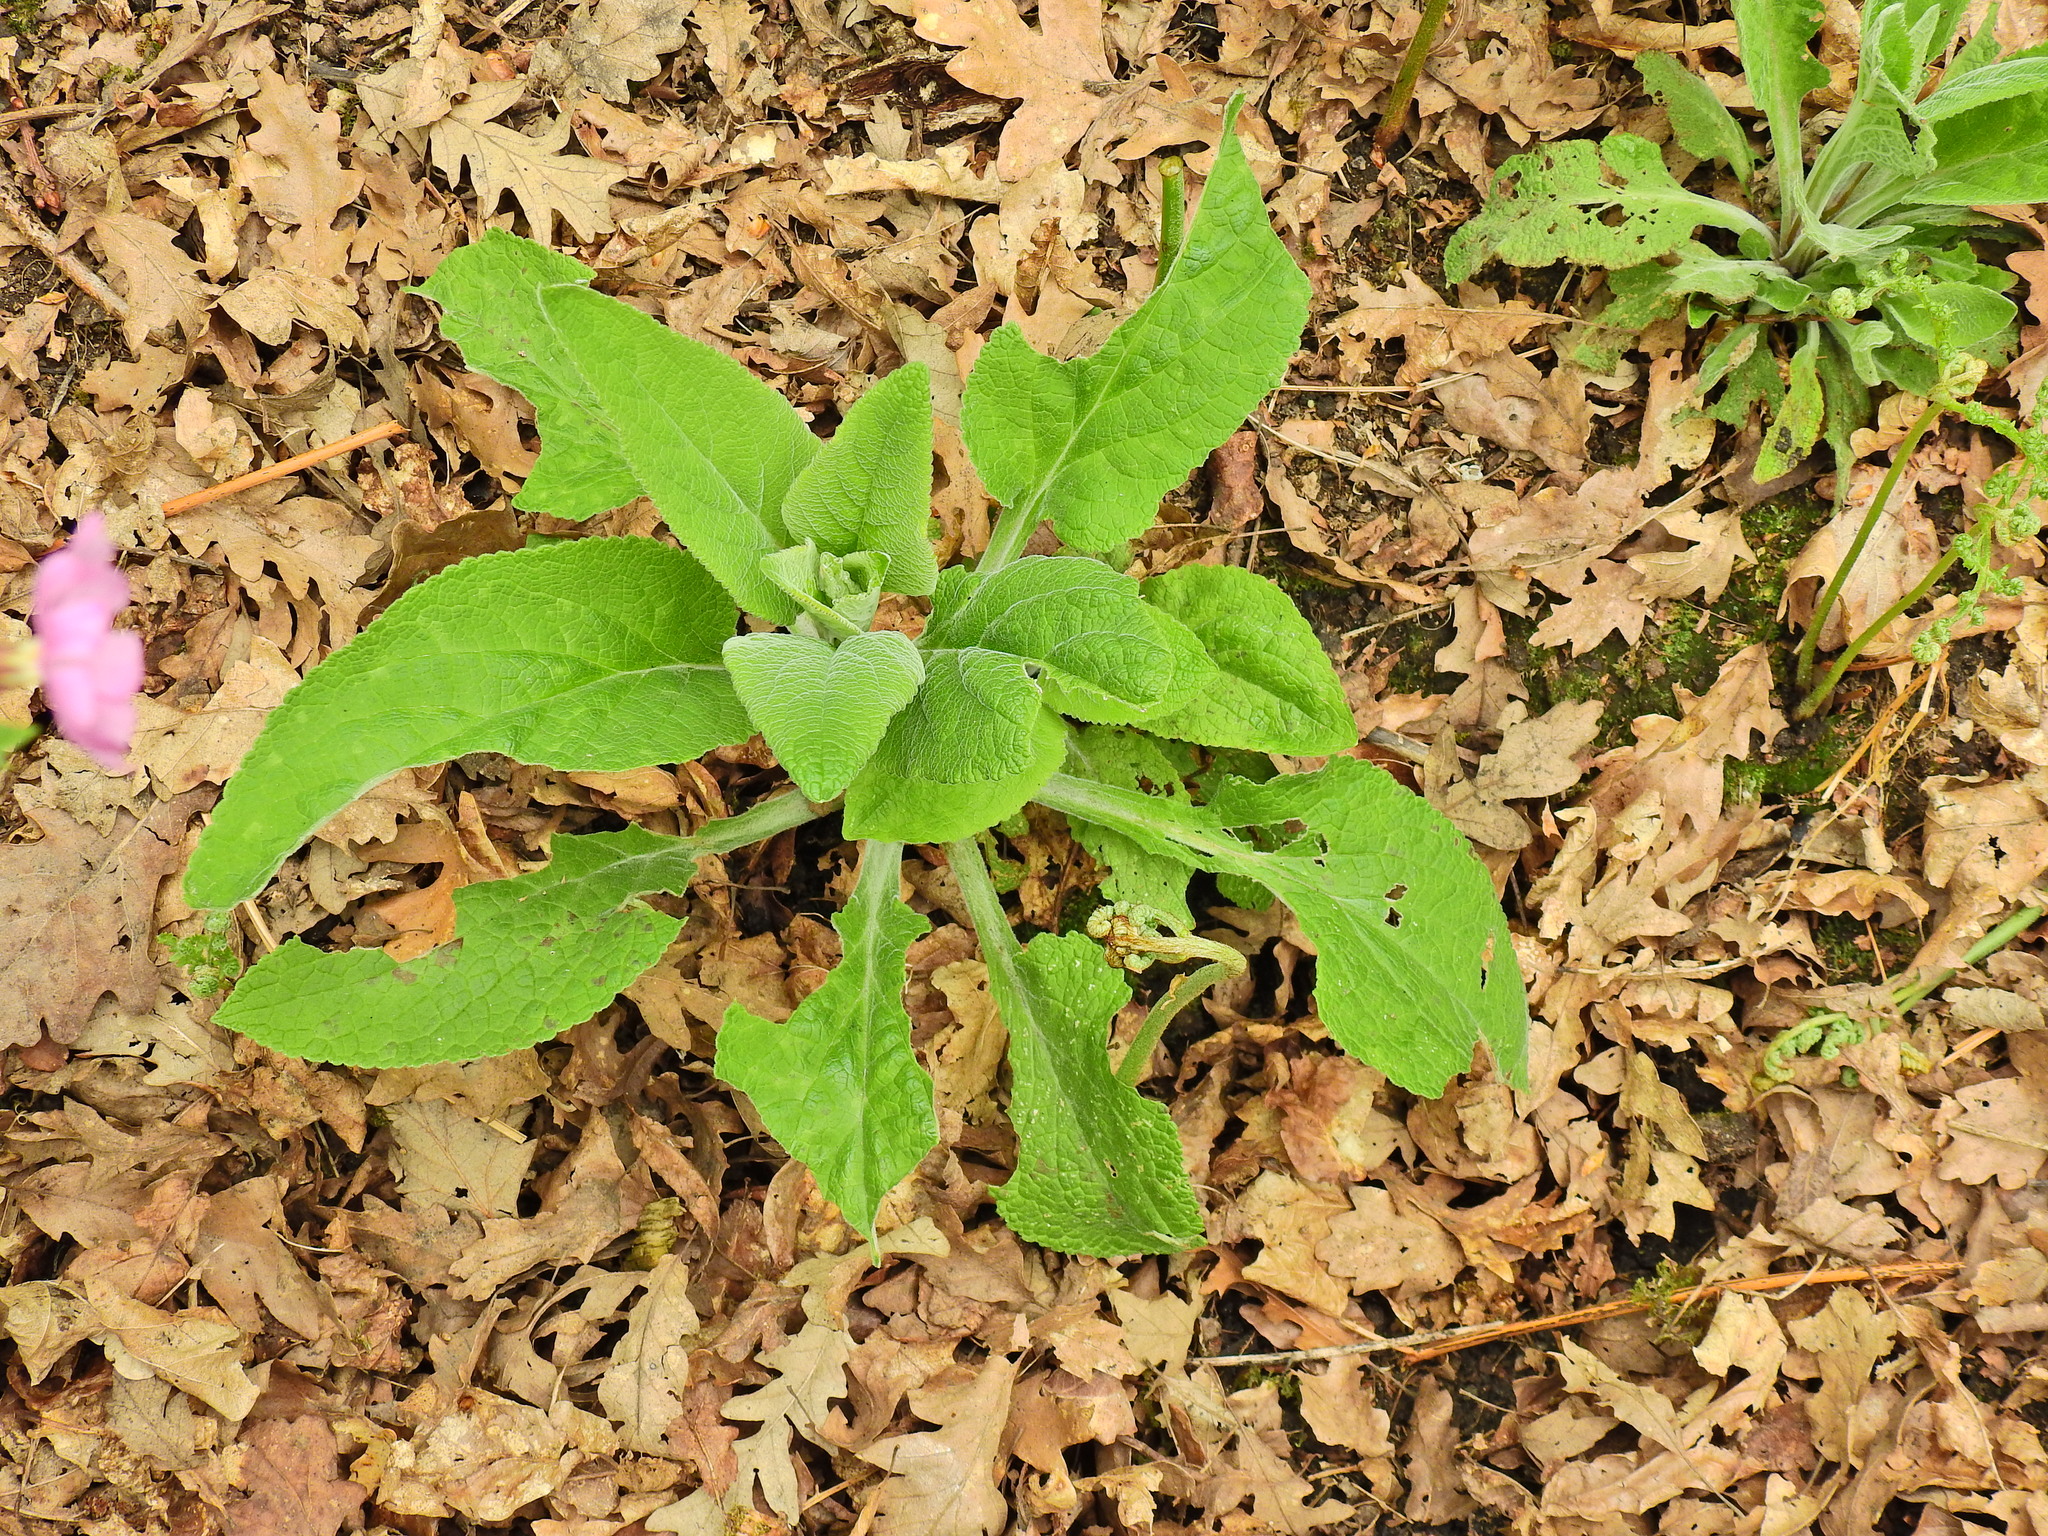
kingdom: Plantae
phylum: Tracheophyta
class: Magnoliopsida
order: Lamiales
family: Plantaginaceae
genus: Digitalis
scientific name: Digitalis purpurea
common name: Foxglove
